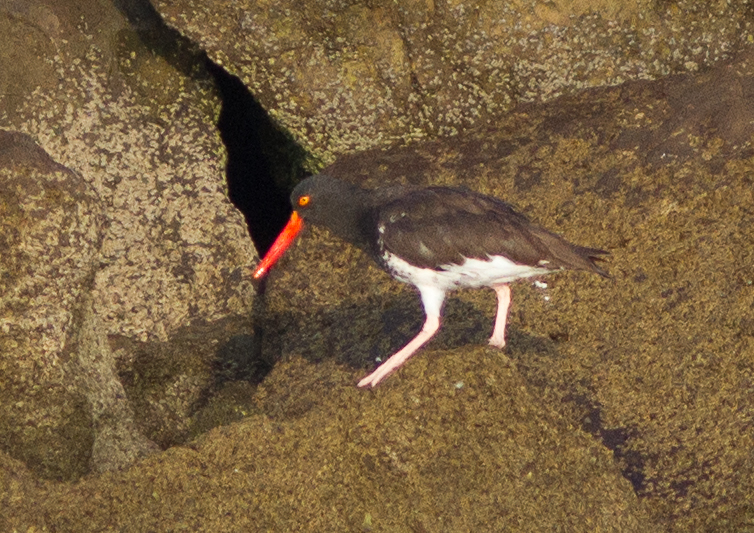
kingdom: Animalia
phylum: Chordata
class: Aves
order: Charadriiformes
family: Haematopodidae
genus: Haematopus
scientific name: Haematopus
